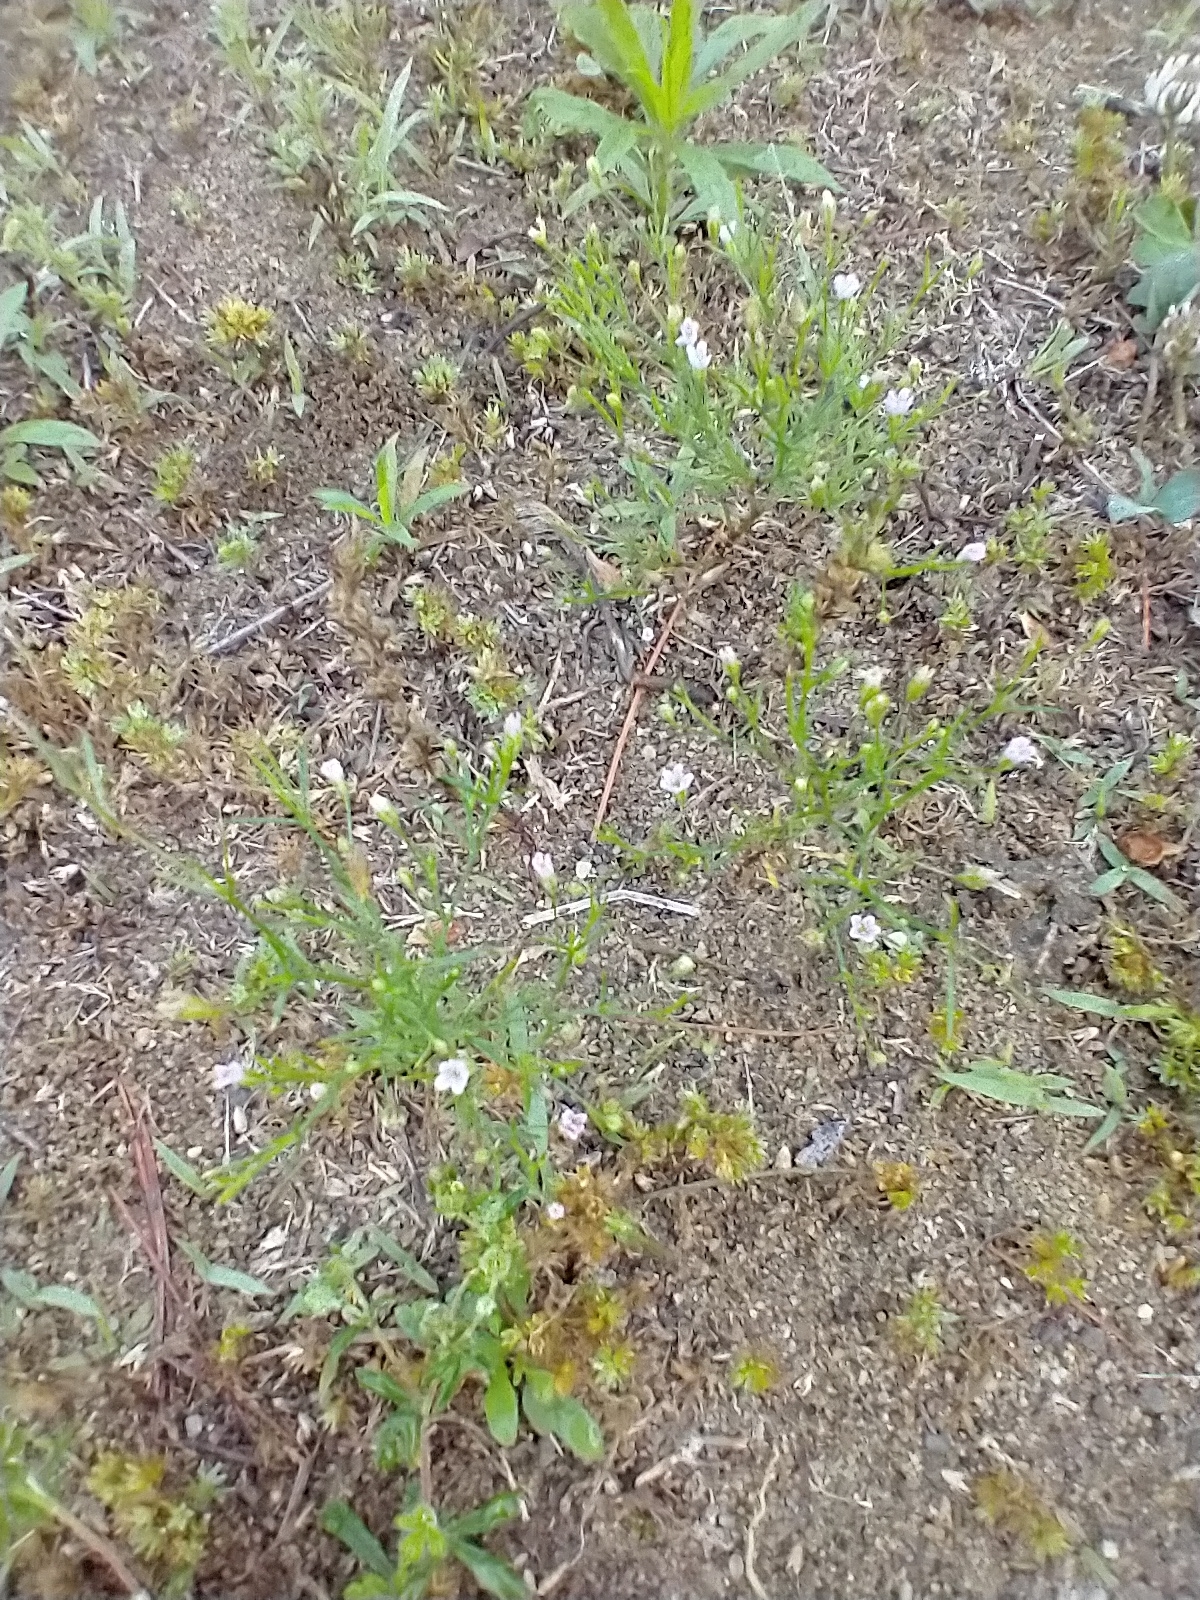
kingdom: Plantae
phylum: Tracheophyta
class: Magnoliopsida
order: Caryophyllales
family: Caryophyllaceae
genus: Psammophiliella
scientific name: Psammophiliella muralis
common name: Cushion baby's-breath
